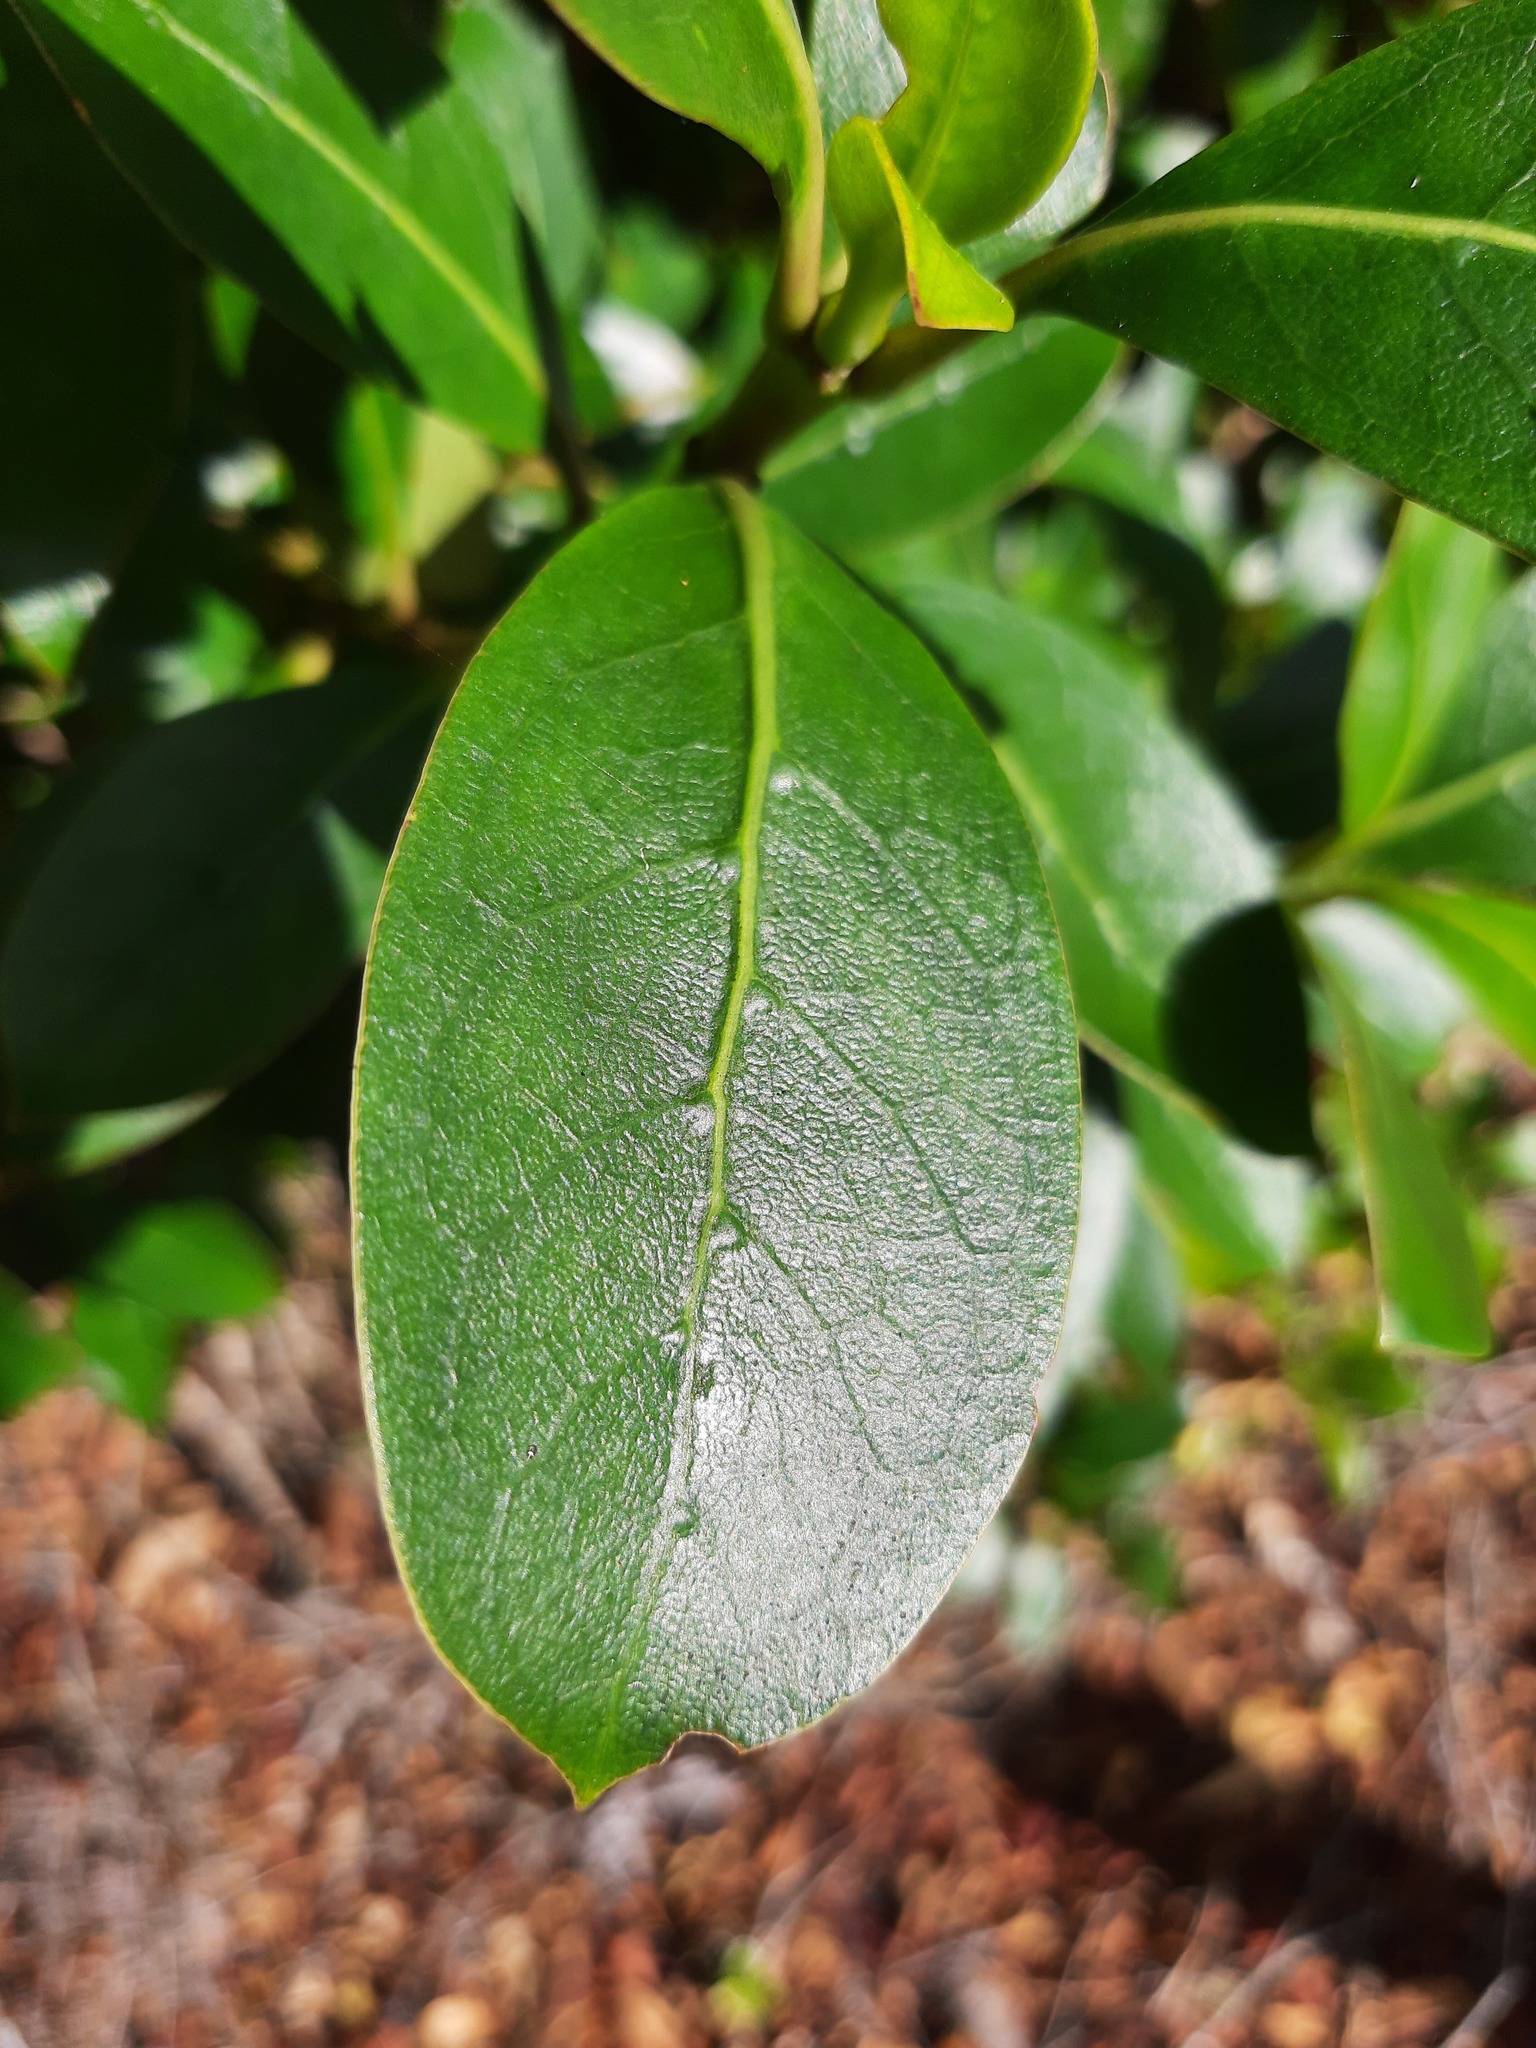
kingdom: Plantae
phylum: Tracheophyta
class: Magnoliopsida
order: Gentianales
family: Rubiaceae
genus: Coprosma
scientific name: Coprosma robusta
